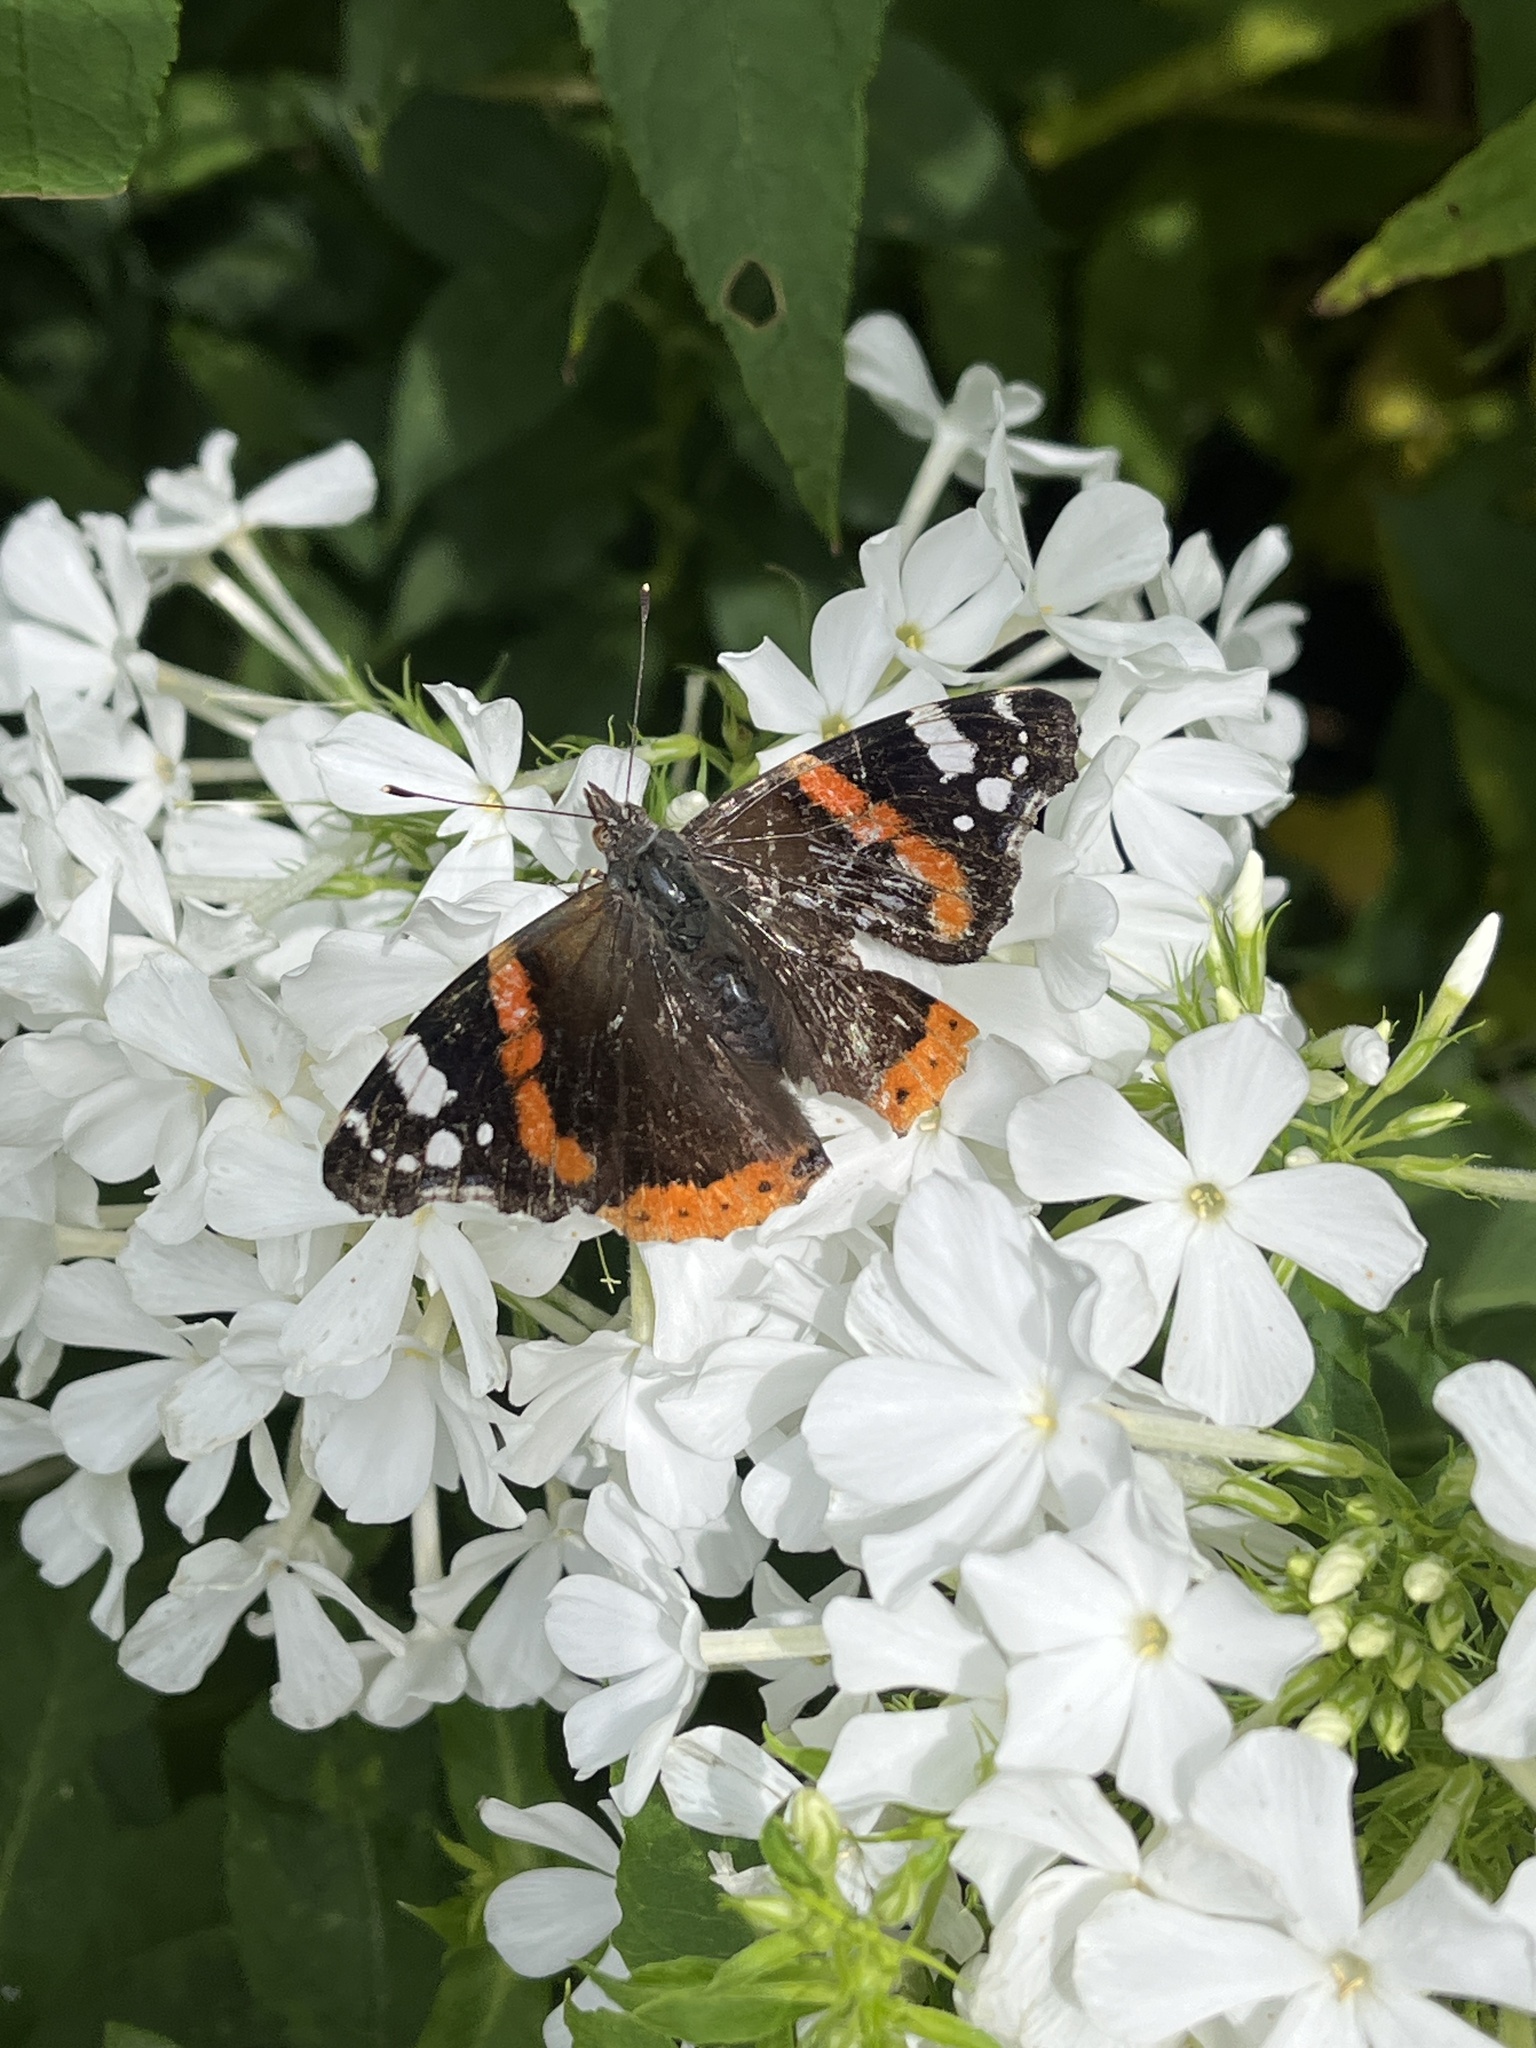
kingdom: Animalia
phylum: Arthropoda
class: Insecta
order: Lepidoptera
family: Nymphalidae
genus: Vanessa
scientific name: Vanessa atalanta
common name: Red admiral
